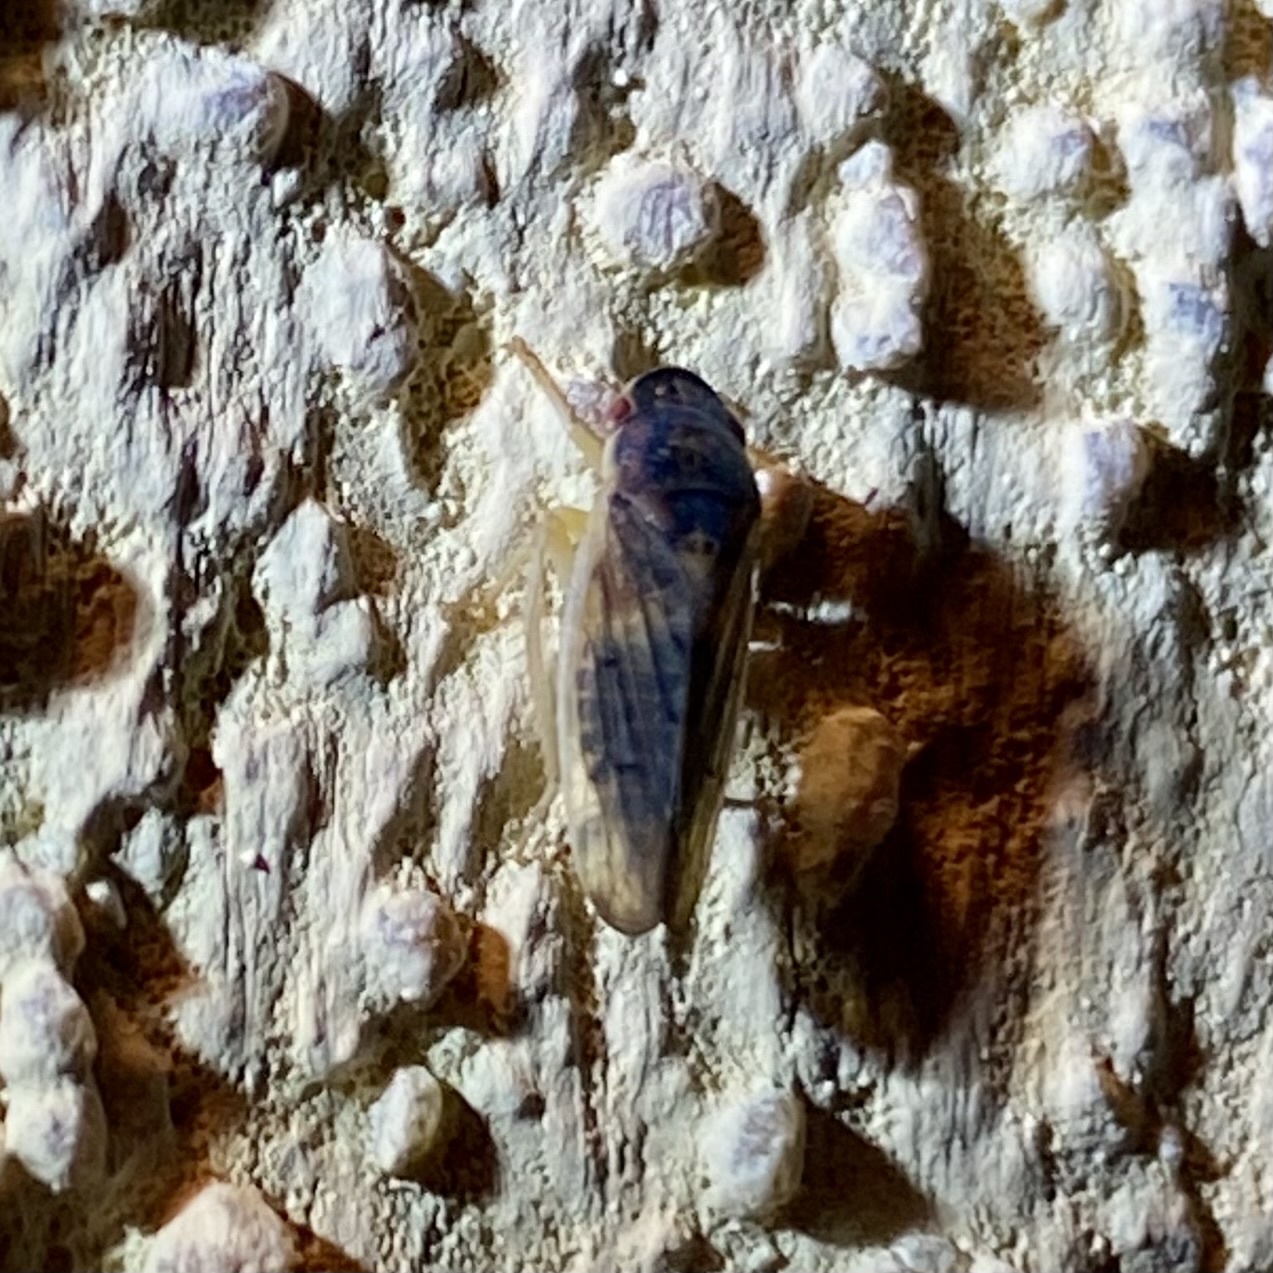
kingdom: Animalia
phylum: Arthropoda
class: Insecta
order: Hemiptera
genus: Obtusana
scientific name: Obtusana
